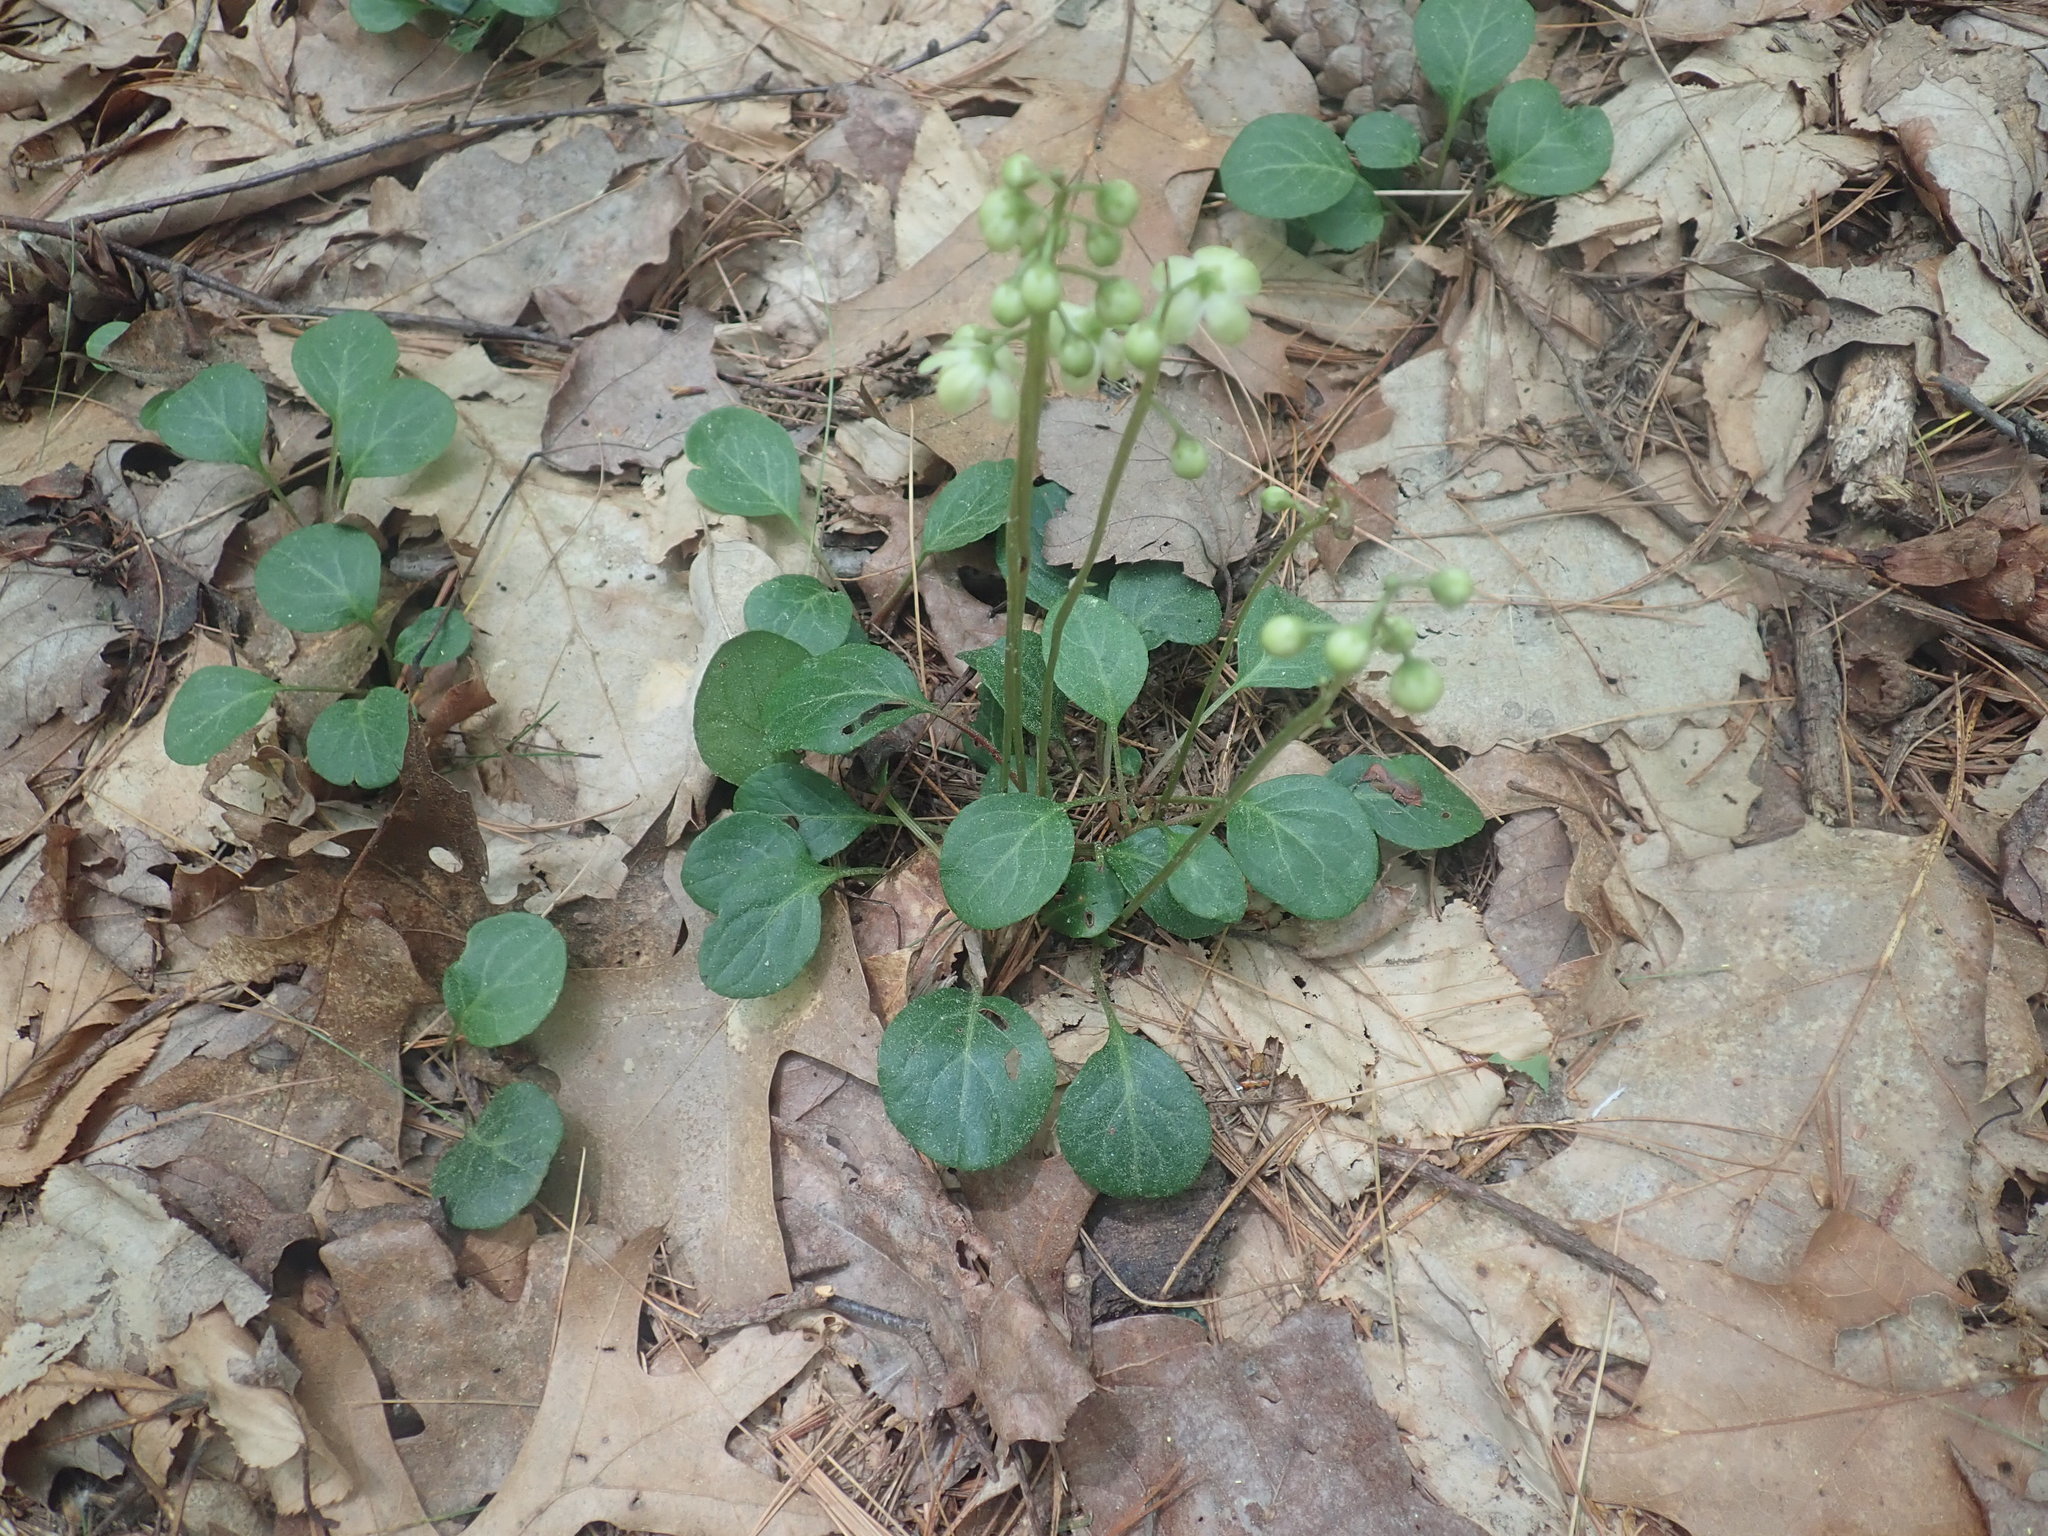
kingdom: Plantae
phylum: Tracheophyta
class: Magnoliopsida
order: Ericales
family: Ericaceae
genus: Pyrola
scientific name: Pyrola chlorantha
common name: Green wintergreen
